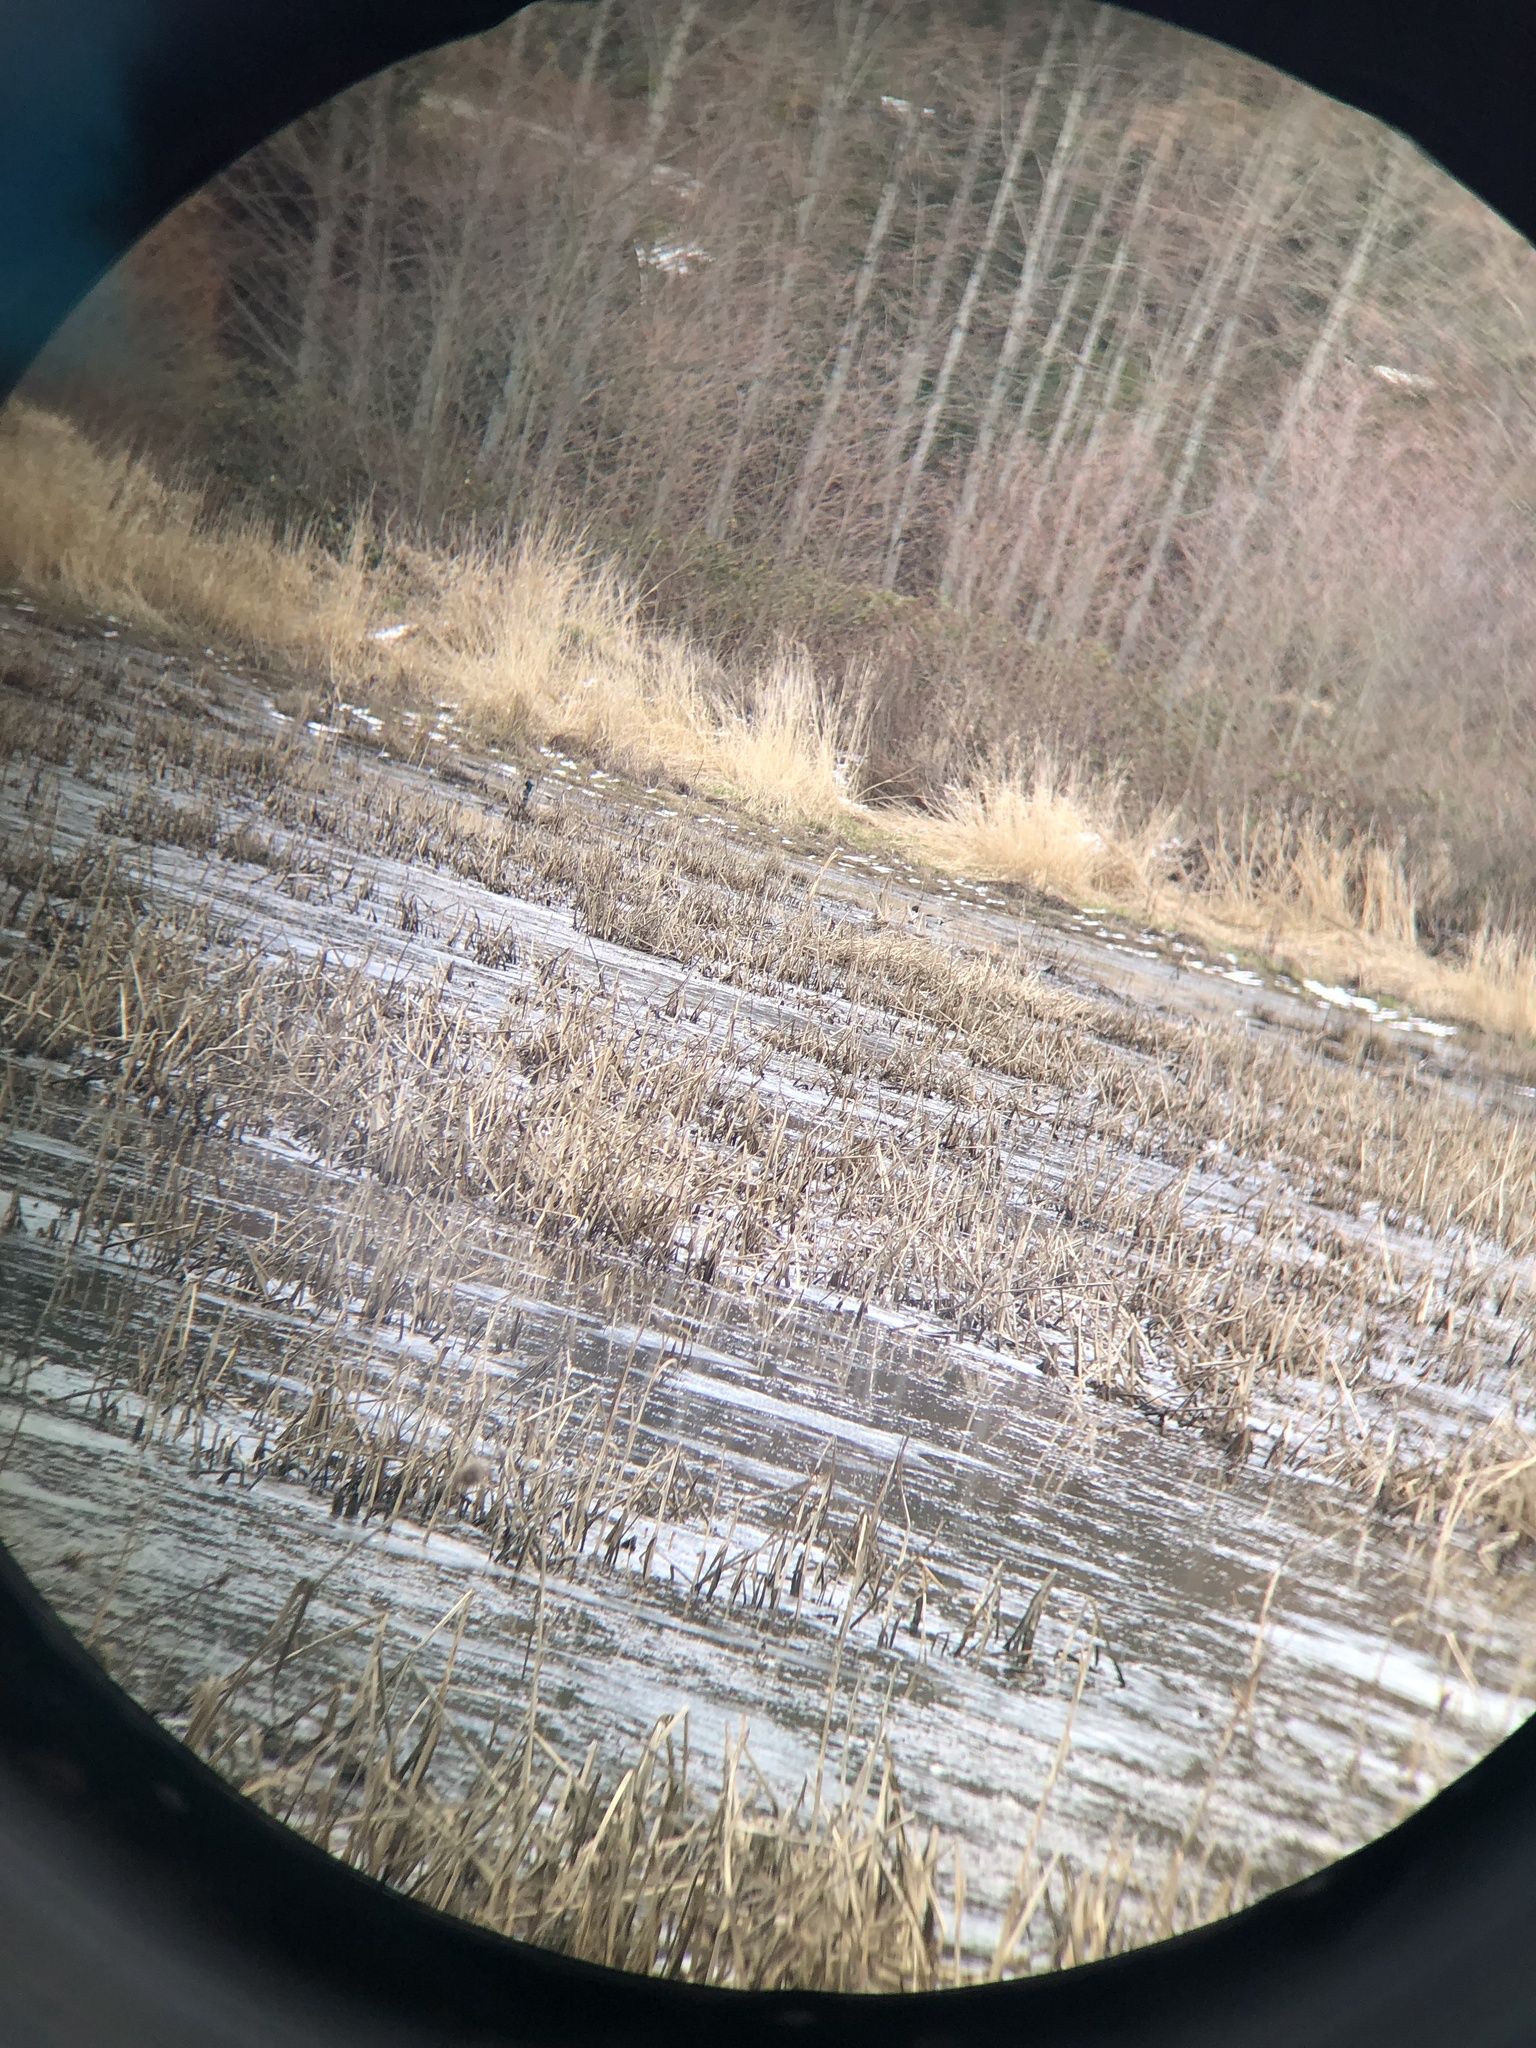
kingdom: Animalia
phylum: Chordata
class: Aves
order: Anseriformes
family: Anatidae
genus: Anas
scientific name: Anas acuta
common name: Northern pintail
